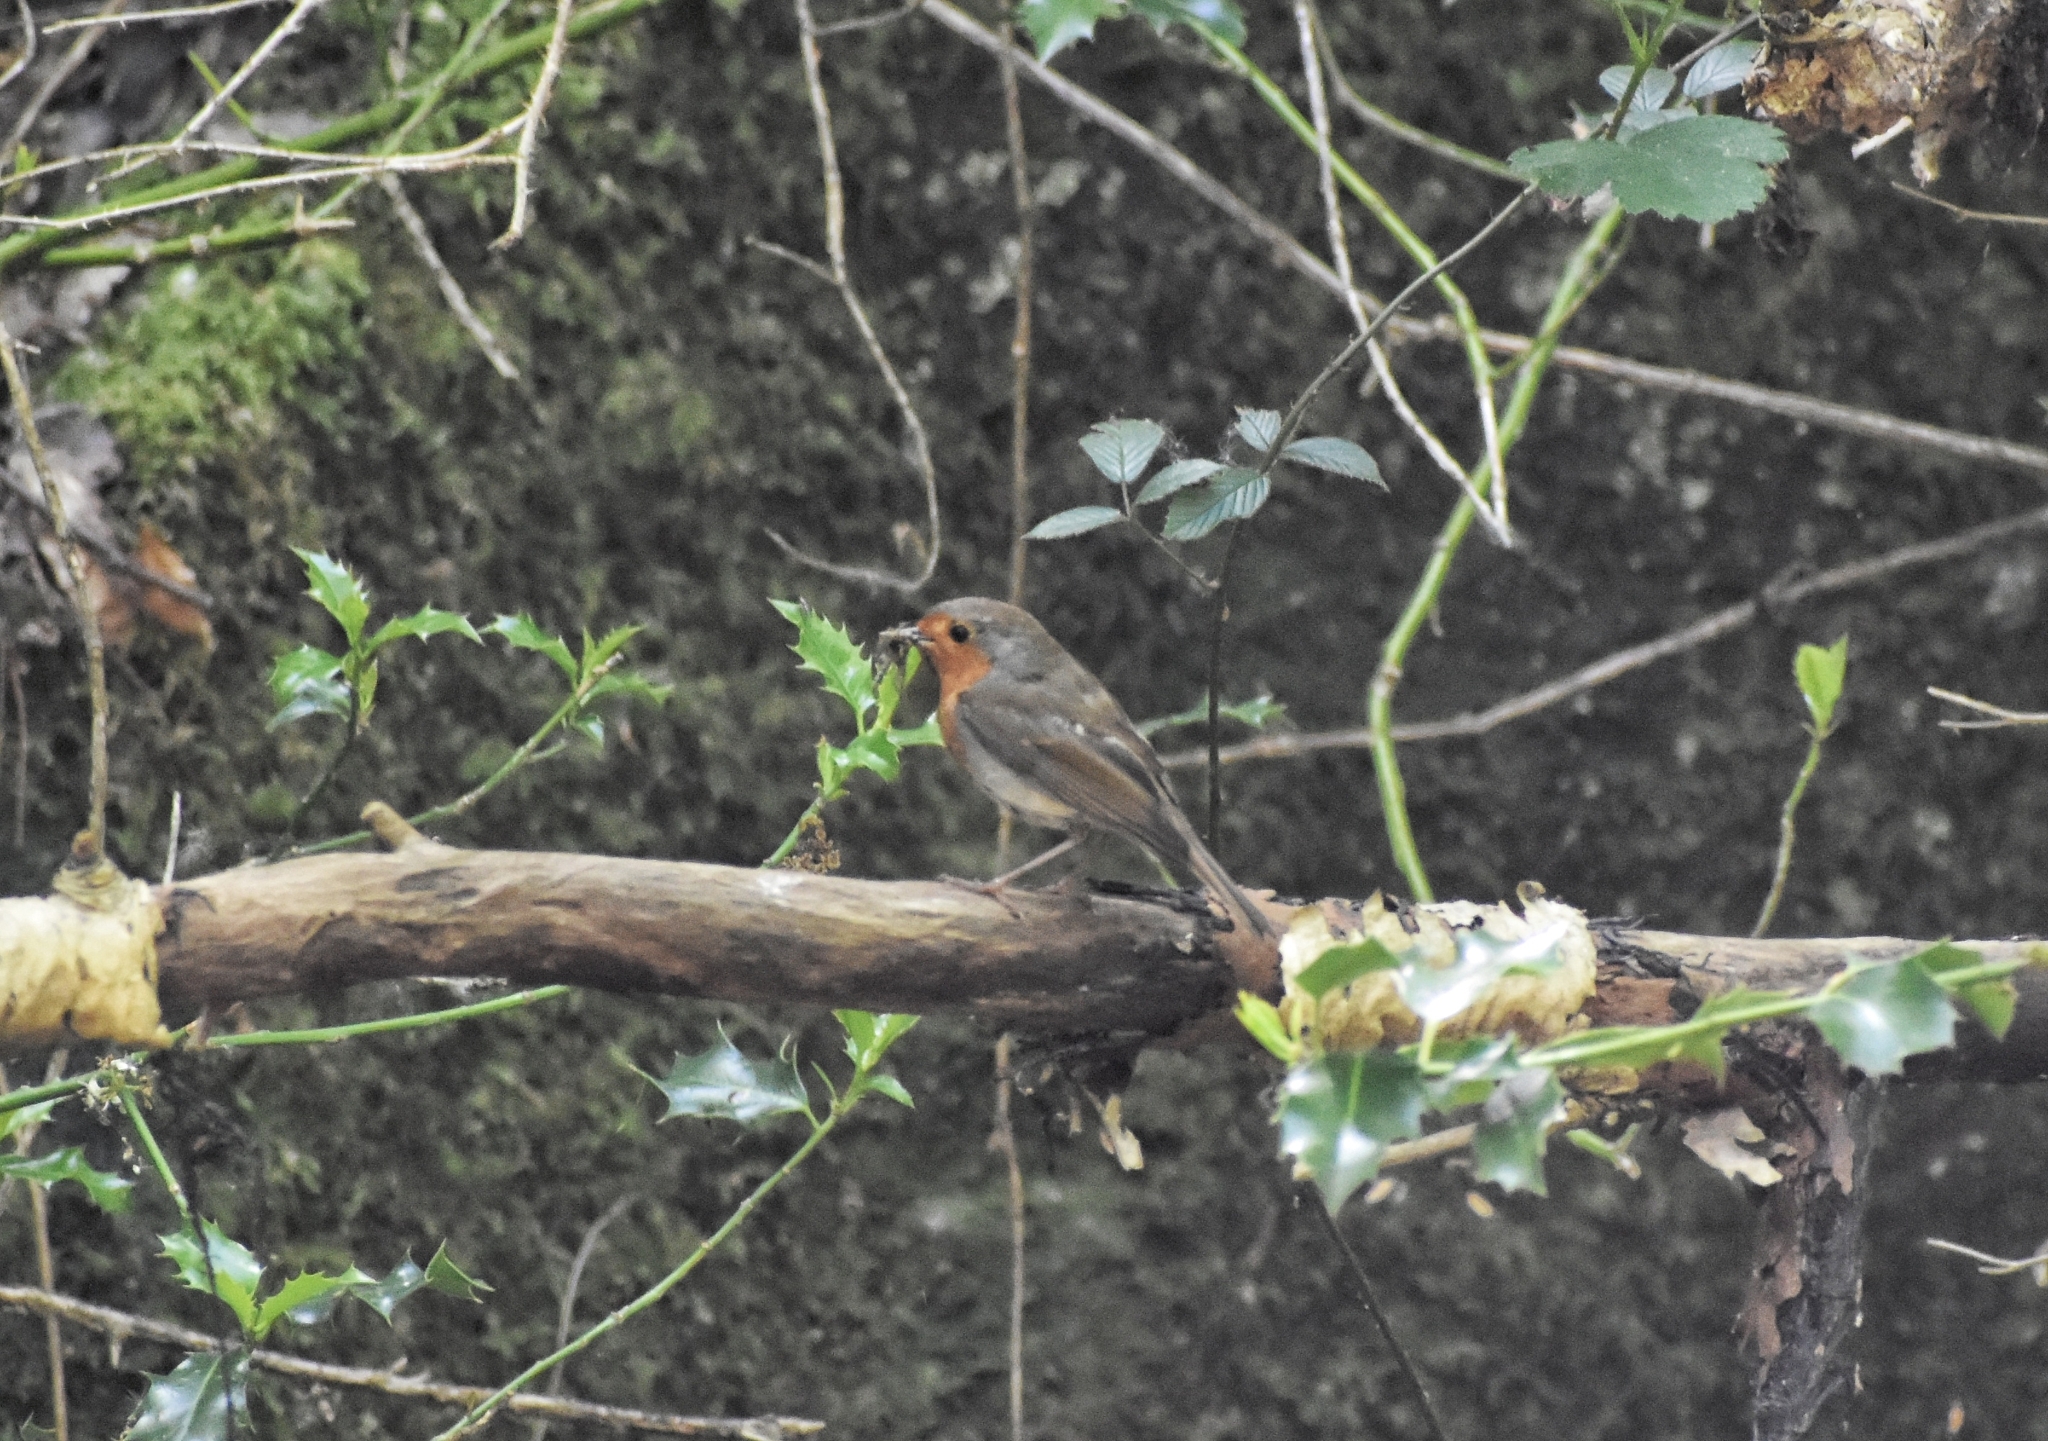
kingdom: Animalia
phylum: Chordata
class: Aves
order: Passeriformes
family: Muscicapidae
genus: Erithacus
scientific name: Erithacus rubecula
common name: European robin
